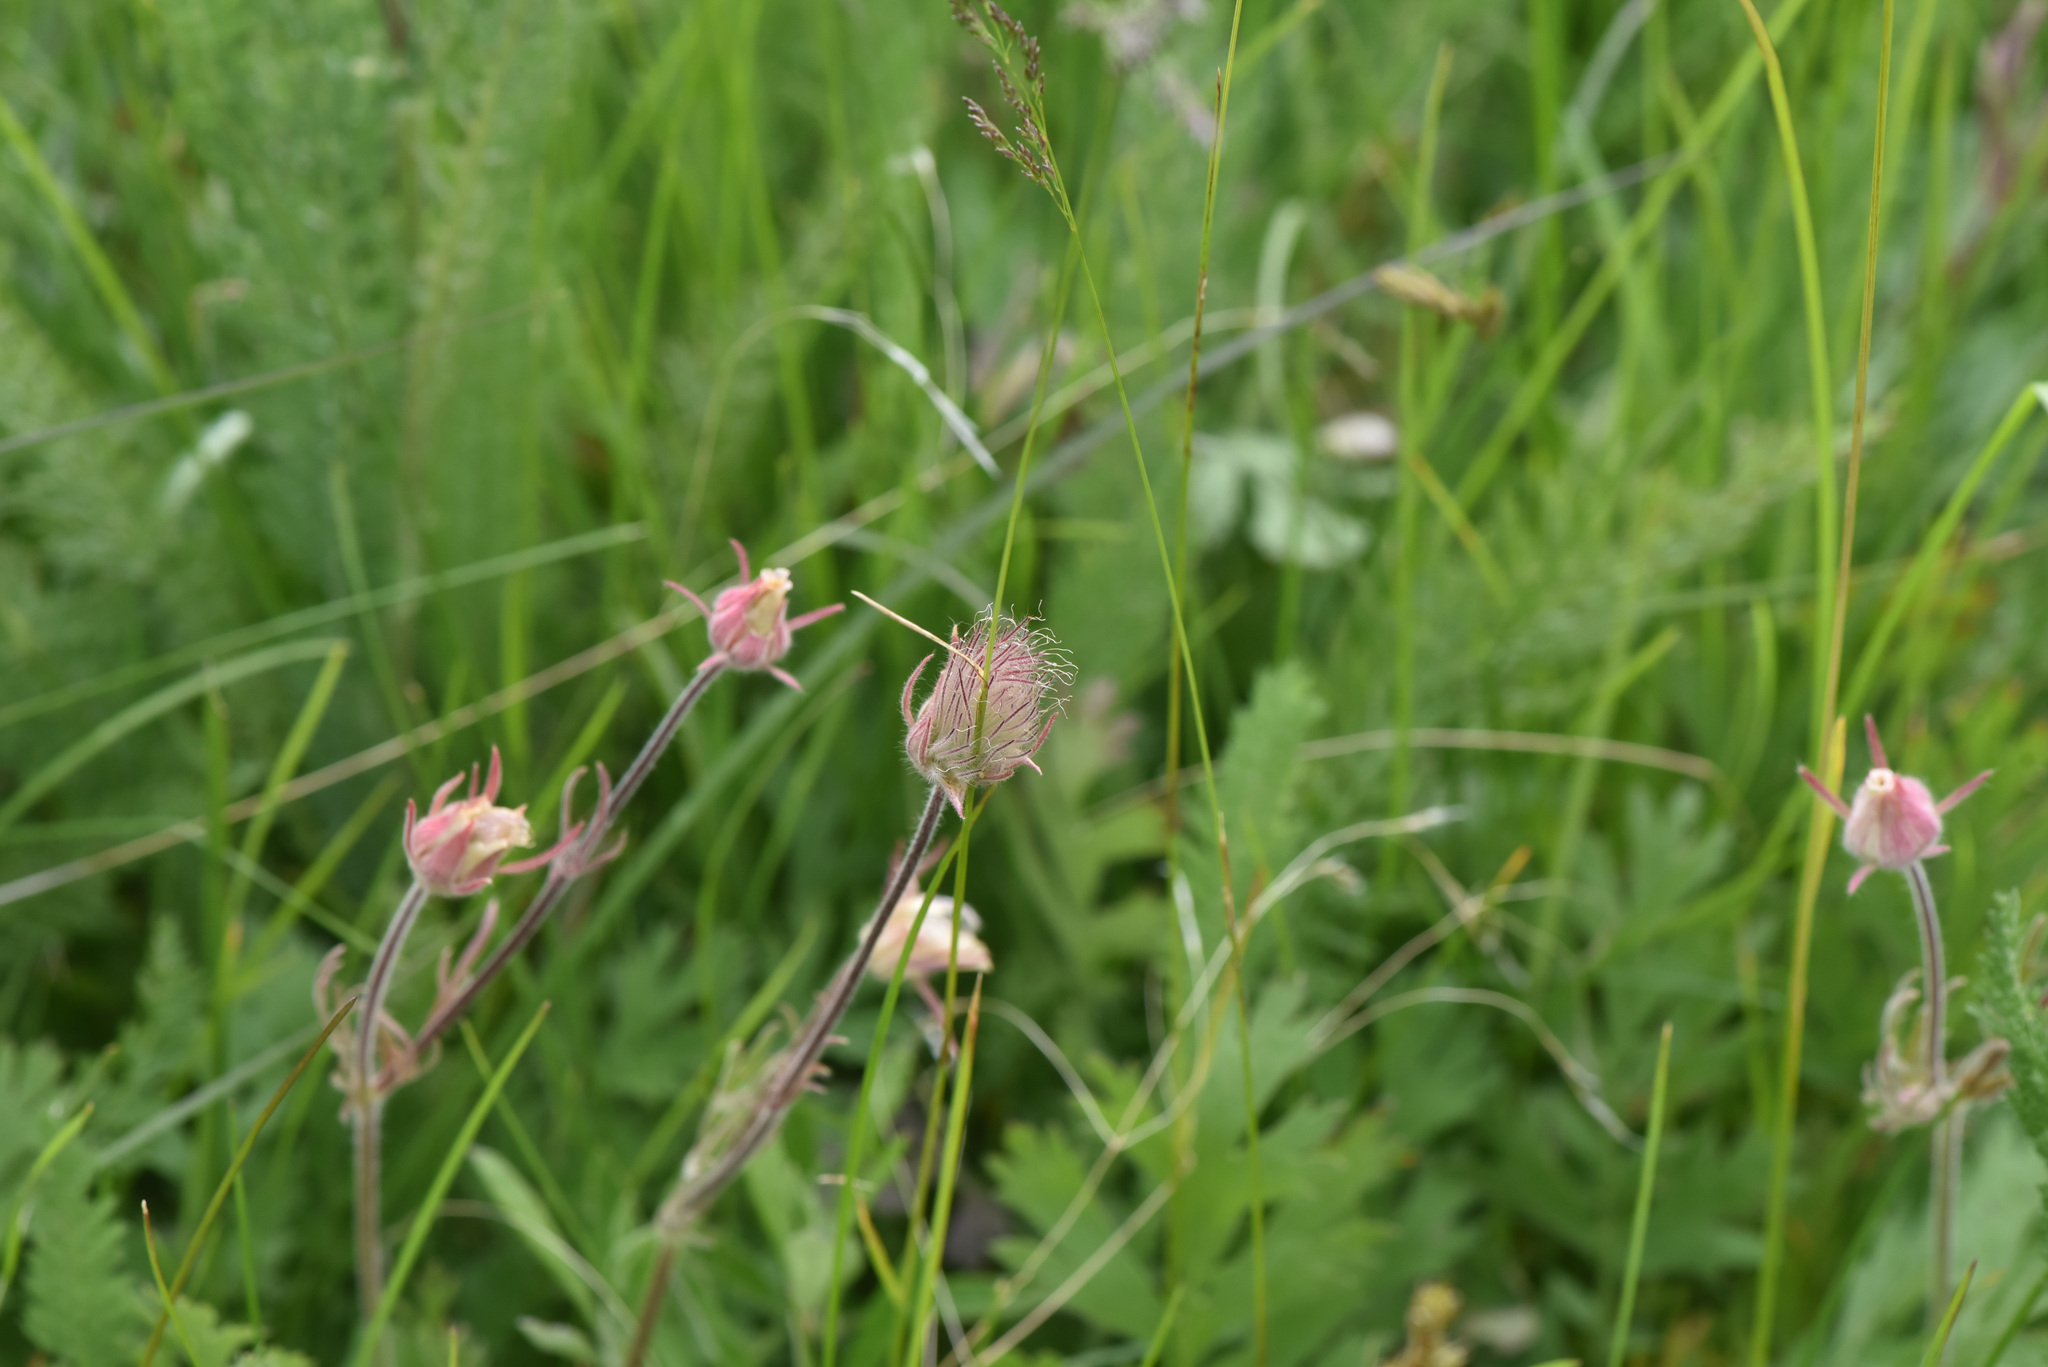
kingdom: Plantae
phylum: Tracheophyta
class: Magnoliopsida
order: Rosales
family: Rosaceae
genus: Geum
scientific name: Geum triflorum
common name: Old man's whiskers
